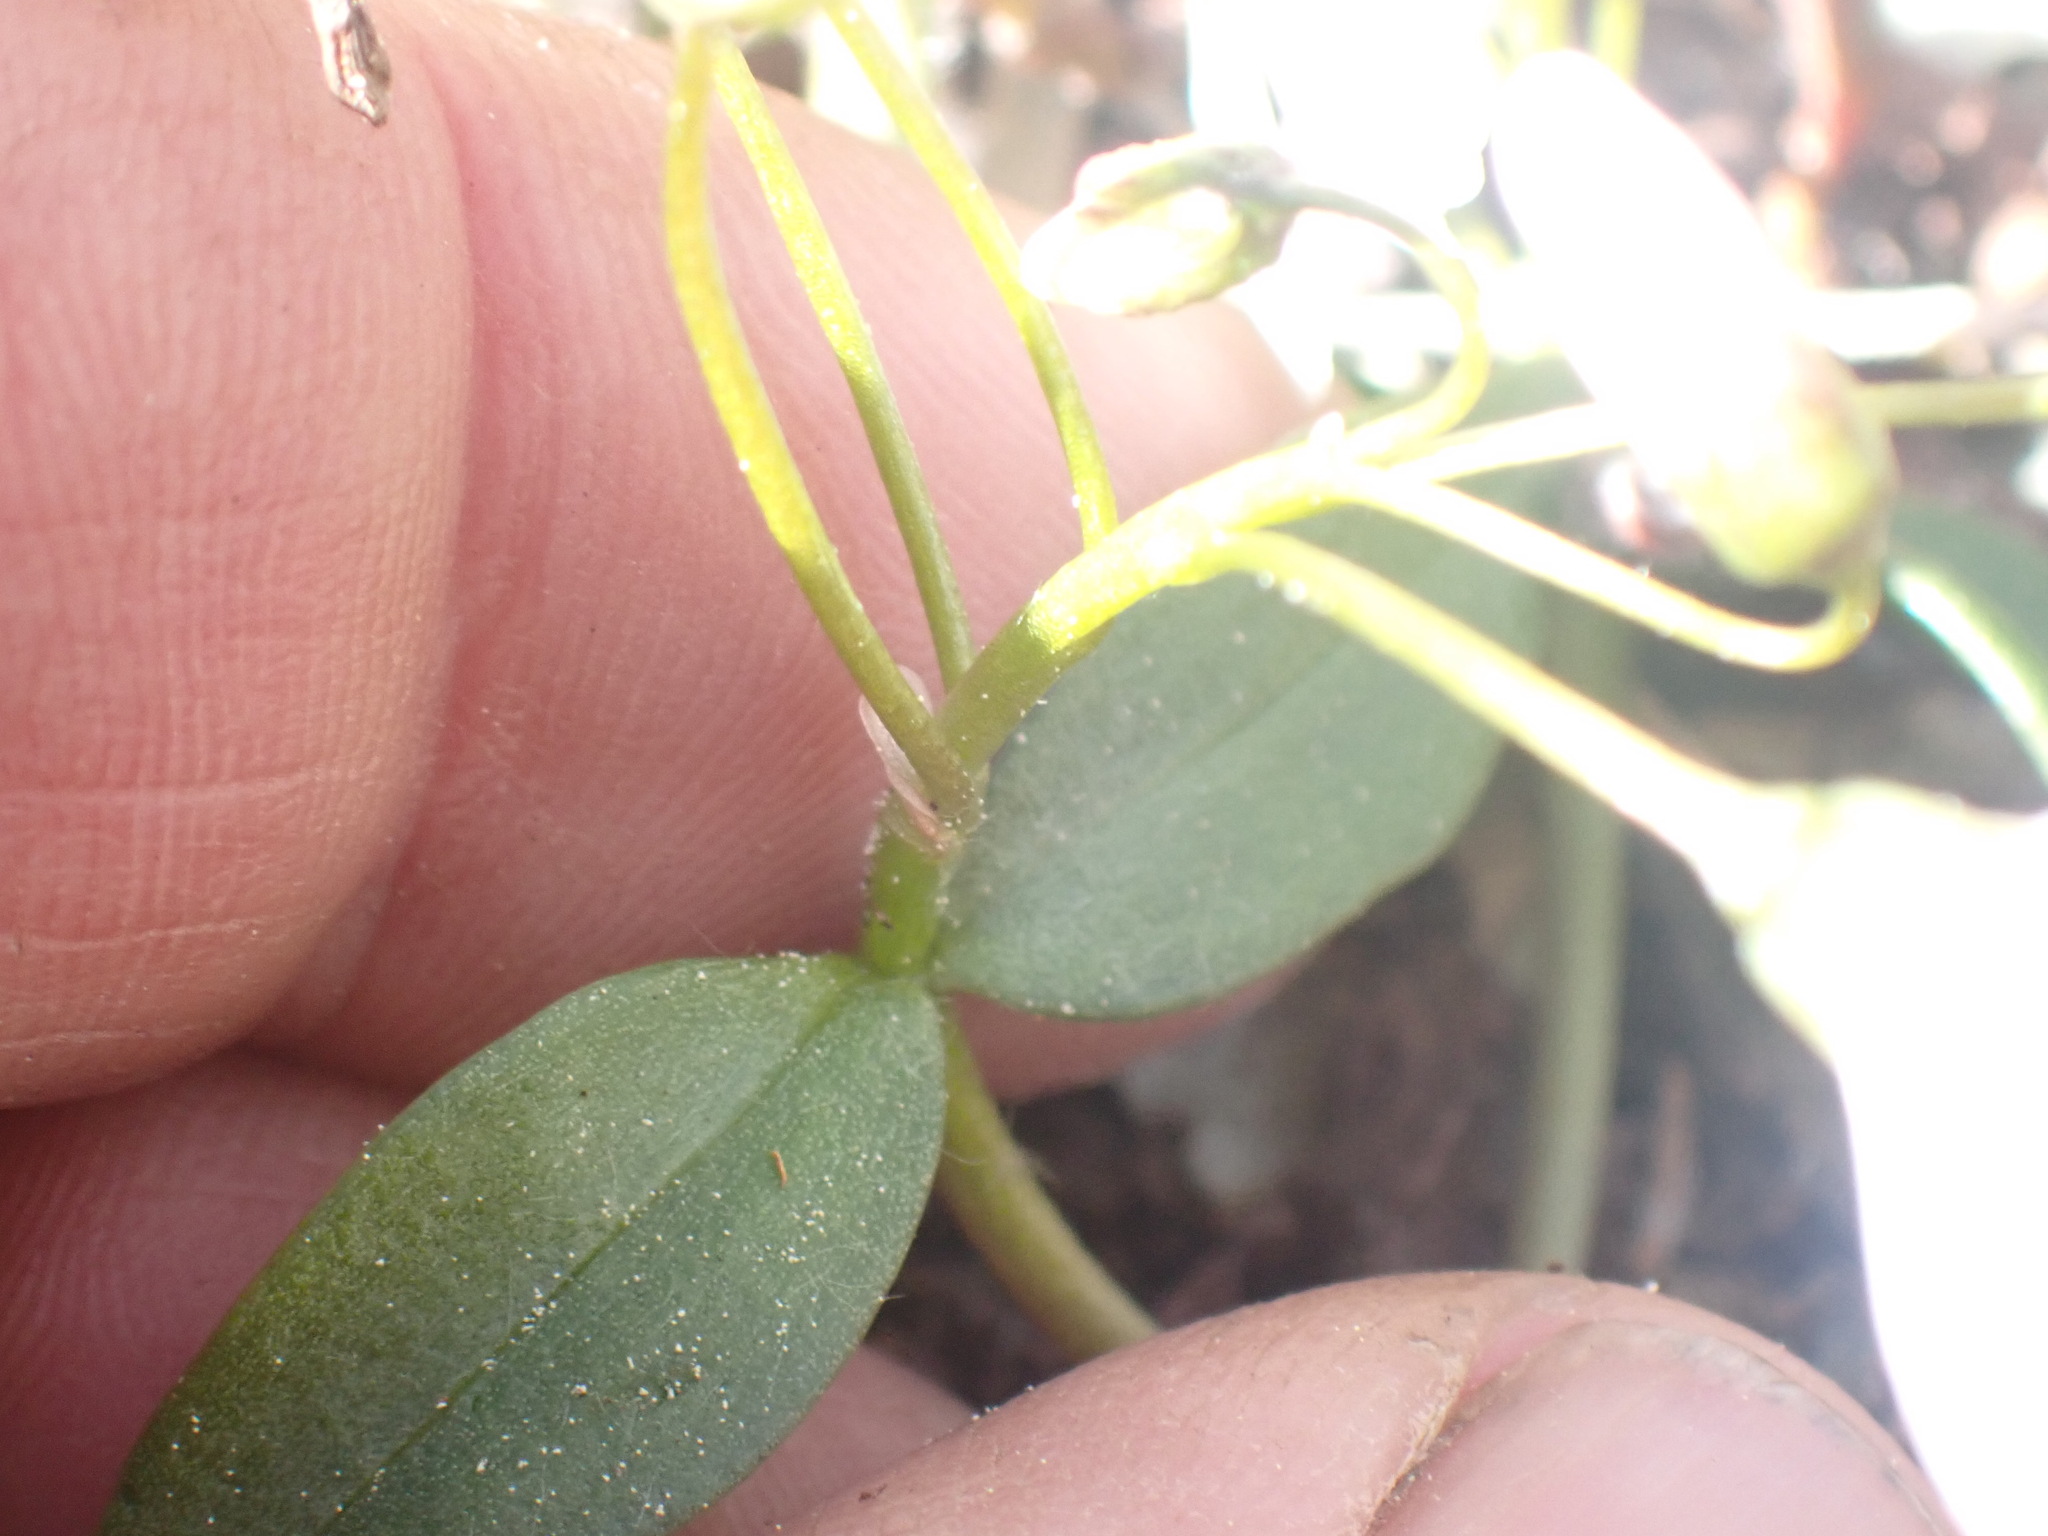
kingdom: Plantae
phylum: Tracheophyta
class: Magnoliopsida
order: Caryophyllales
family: Montiaceae
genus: Claytonia
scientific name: Claytonia lanceolata
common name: Western spring-beauty
